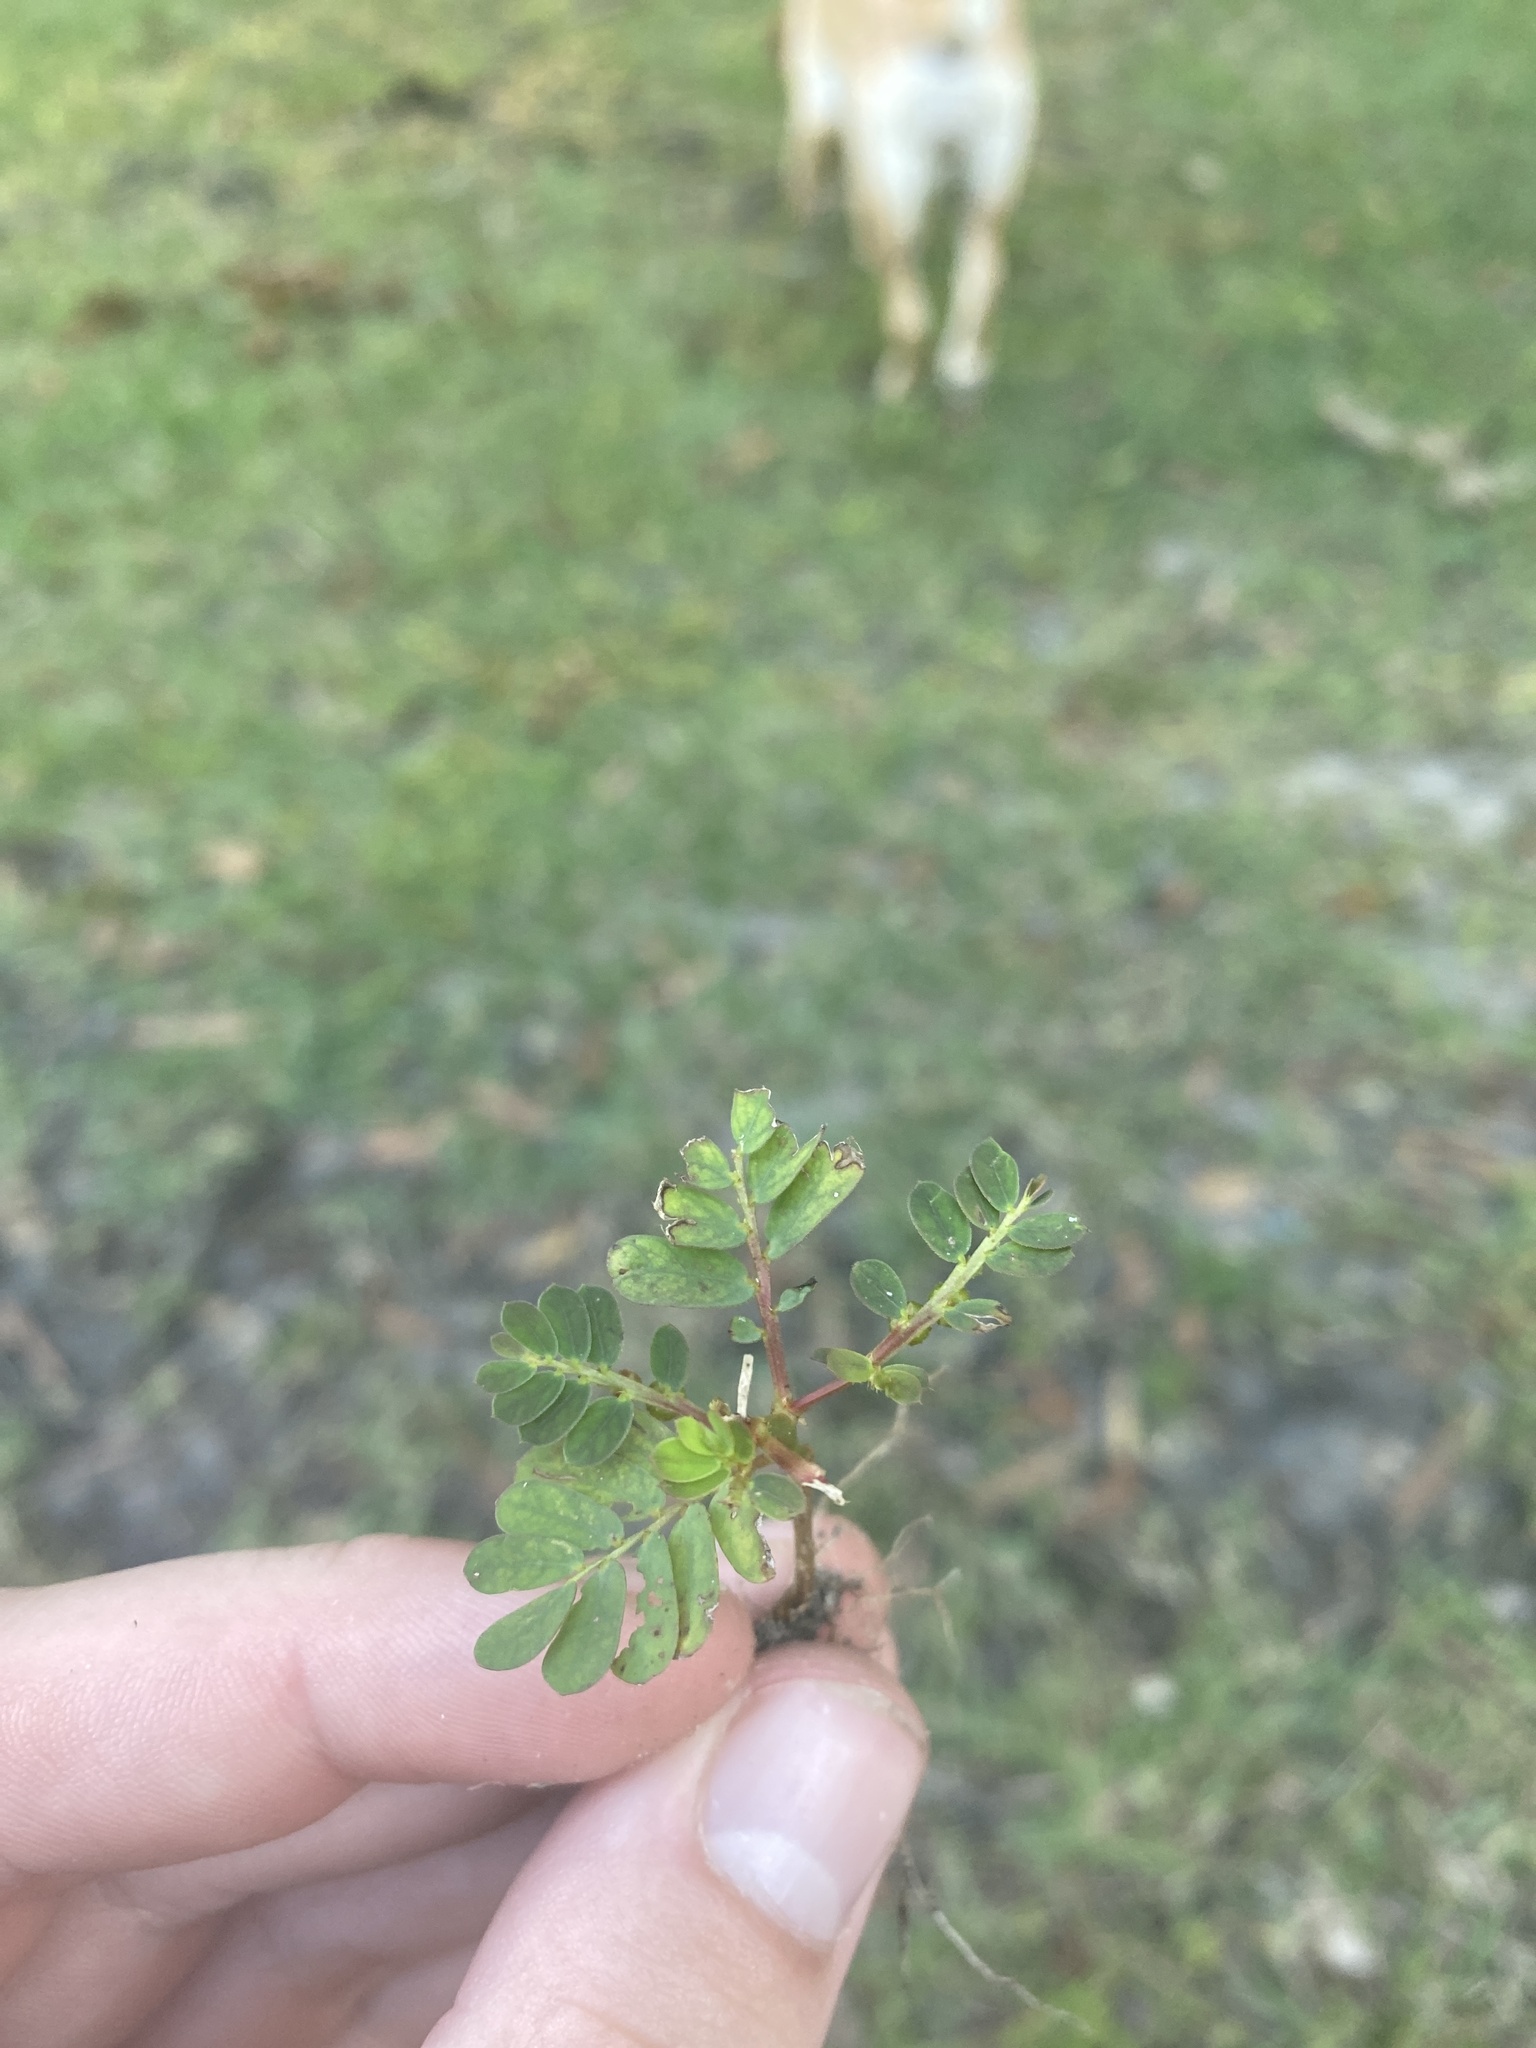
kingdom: Plantae
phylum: Tracheophyta
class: Magnoliopsida
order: Malpighiales
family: Phyllanthaceae
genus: Phyllanthus
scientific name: Phyllanthus urinaria
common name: Chamber bitter
